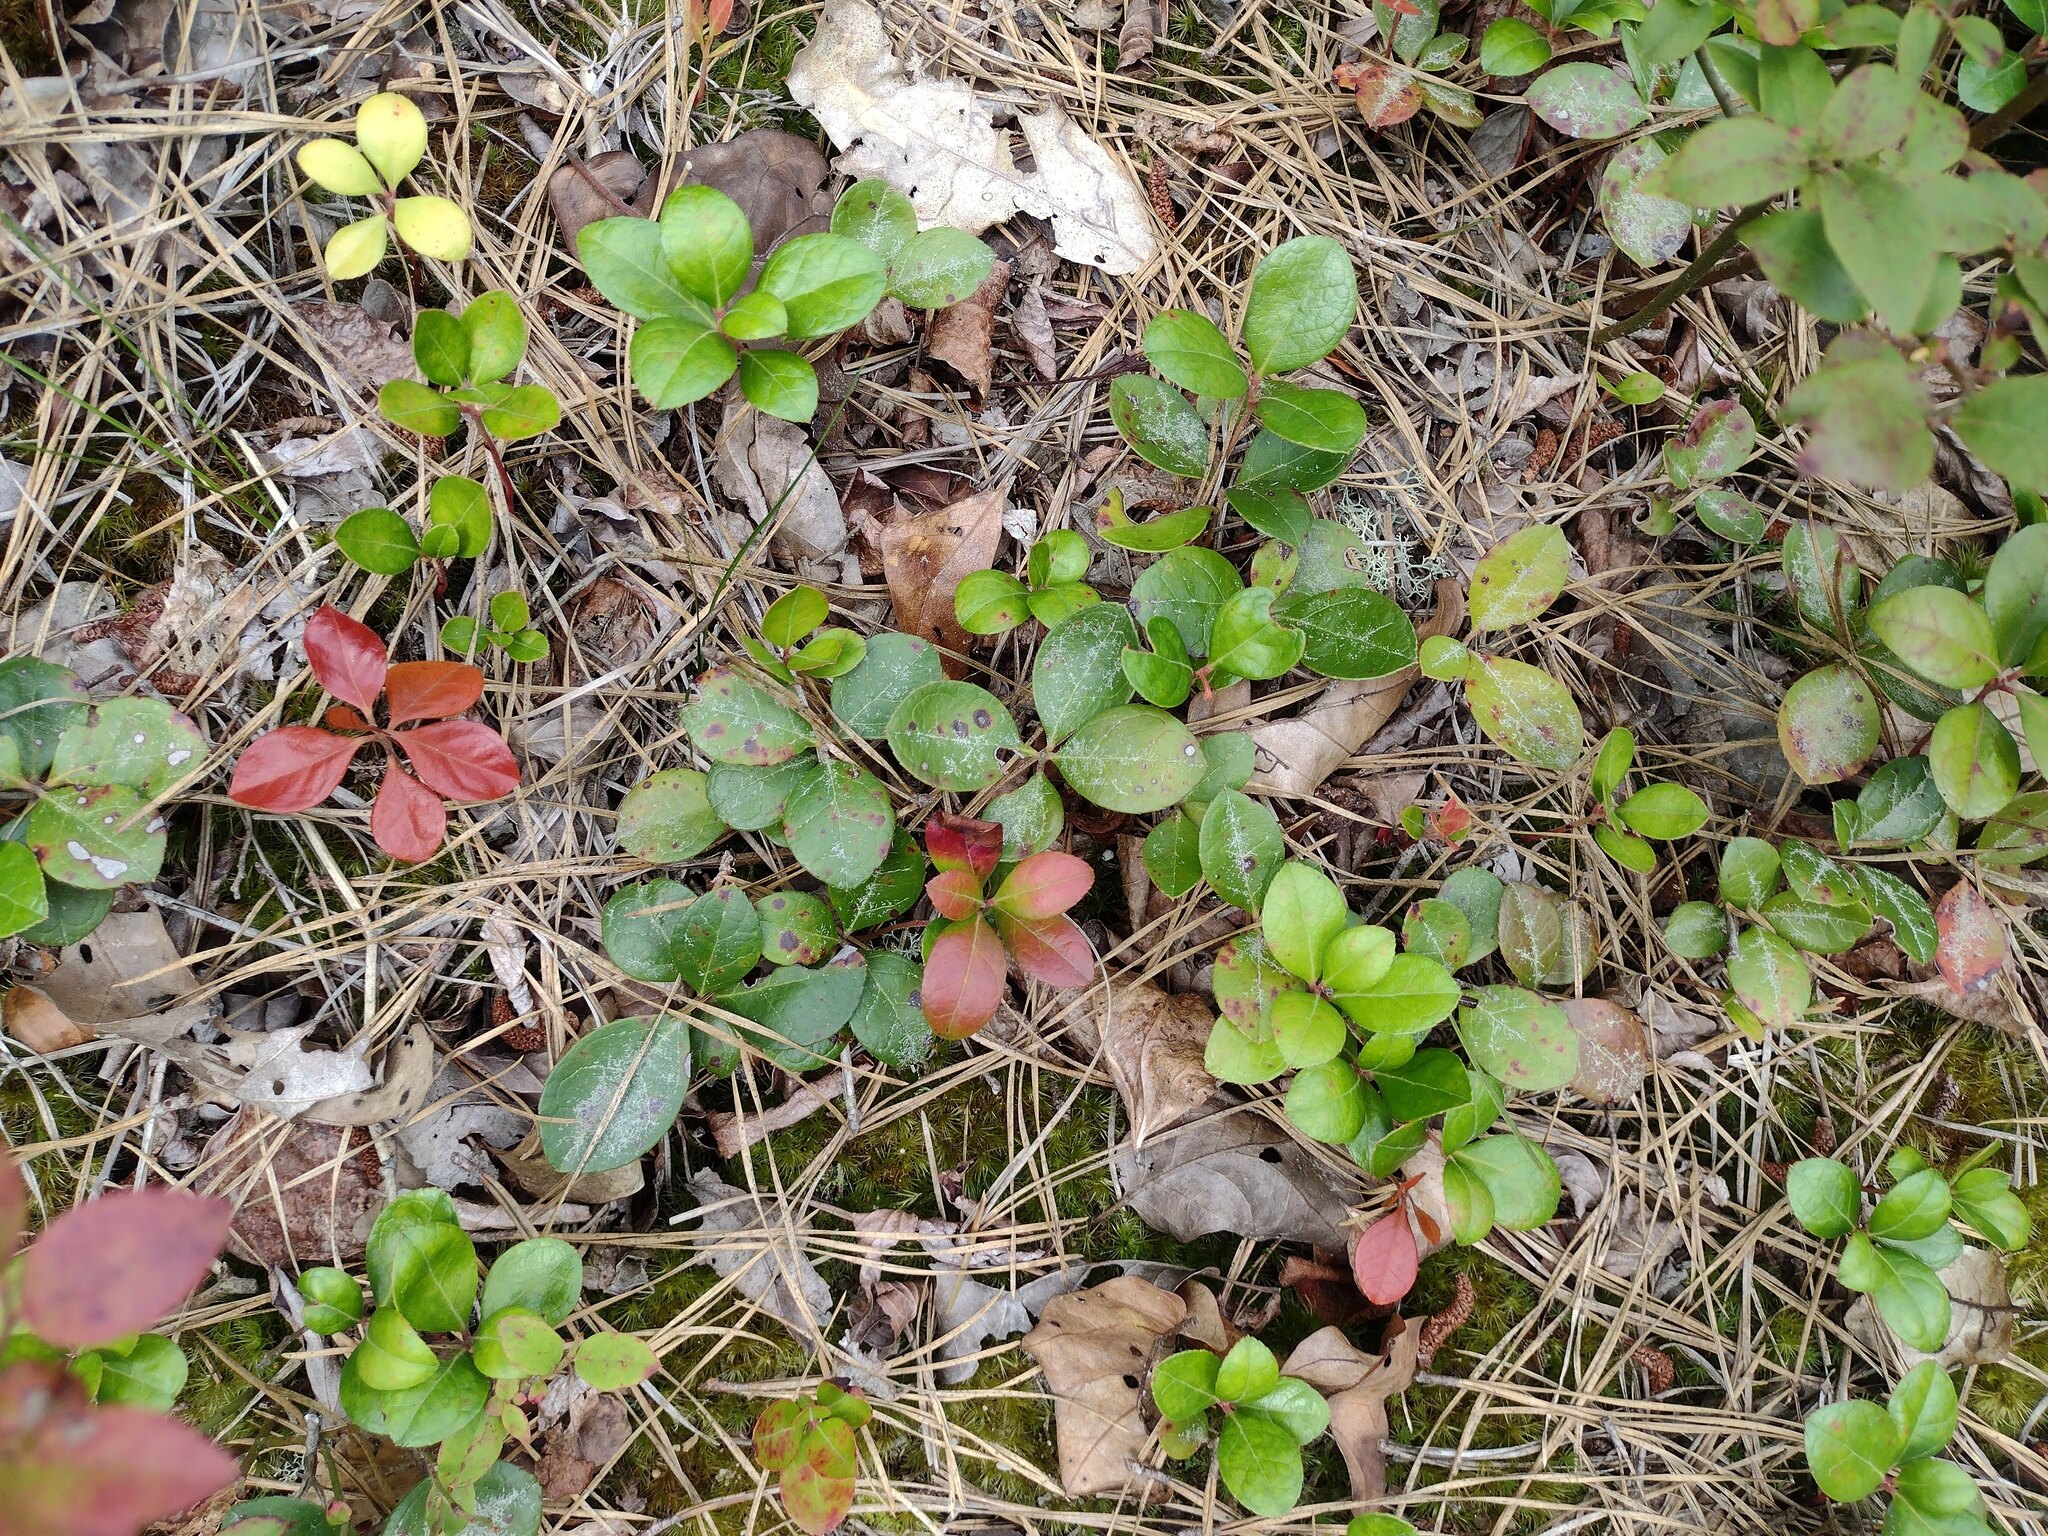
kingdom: Plantae
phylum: Tracheophyta
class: Magnoliopsida
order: Ericales
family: Ericaceae
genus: Gaultheria
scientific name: Gaultheria procumbens
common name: Checkerberry
